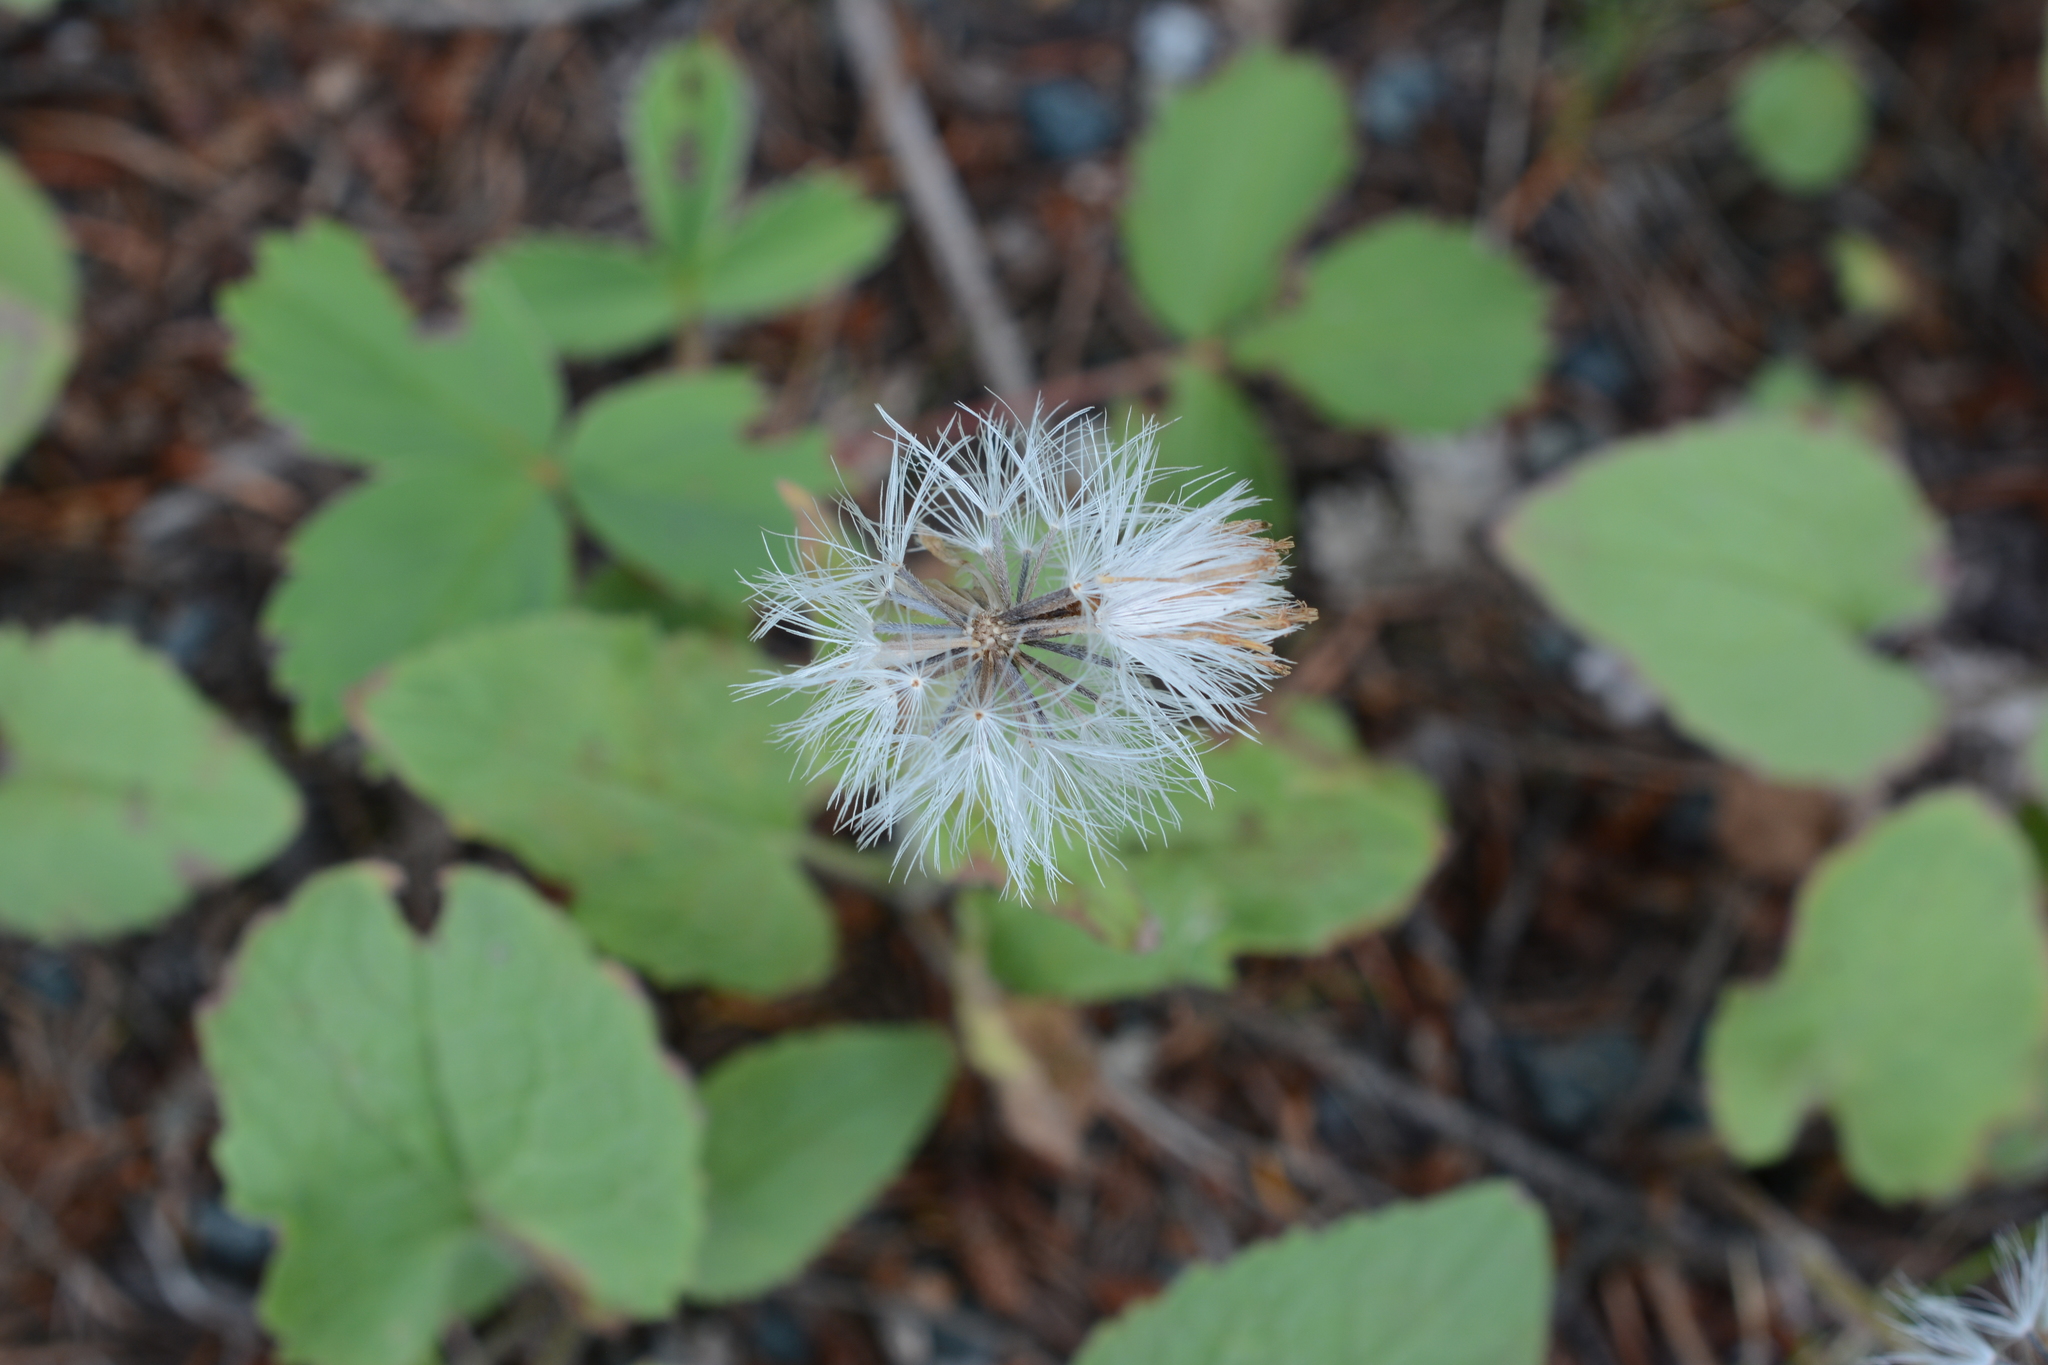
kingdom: Plantae
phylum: Tracheophyta
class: Magnoliopsida
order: Asterales
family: Asteraceae
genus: Arnica
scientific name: Arnica cordifolia
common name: Heart-leaf arnica
